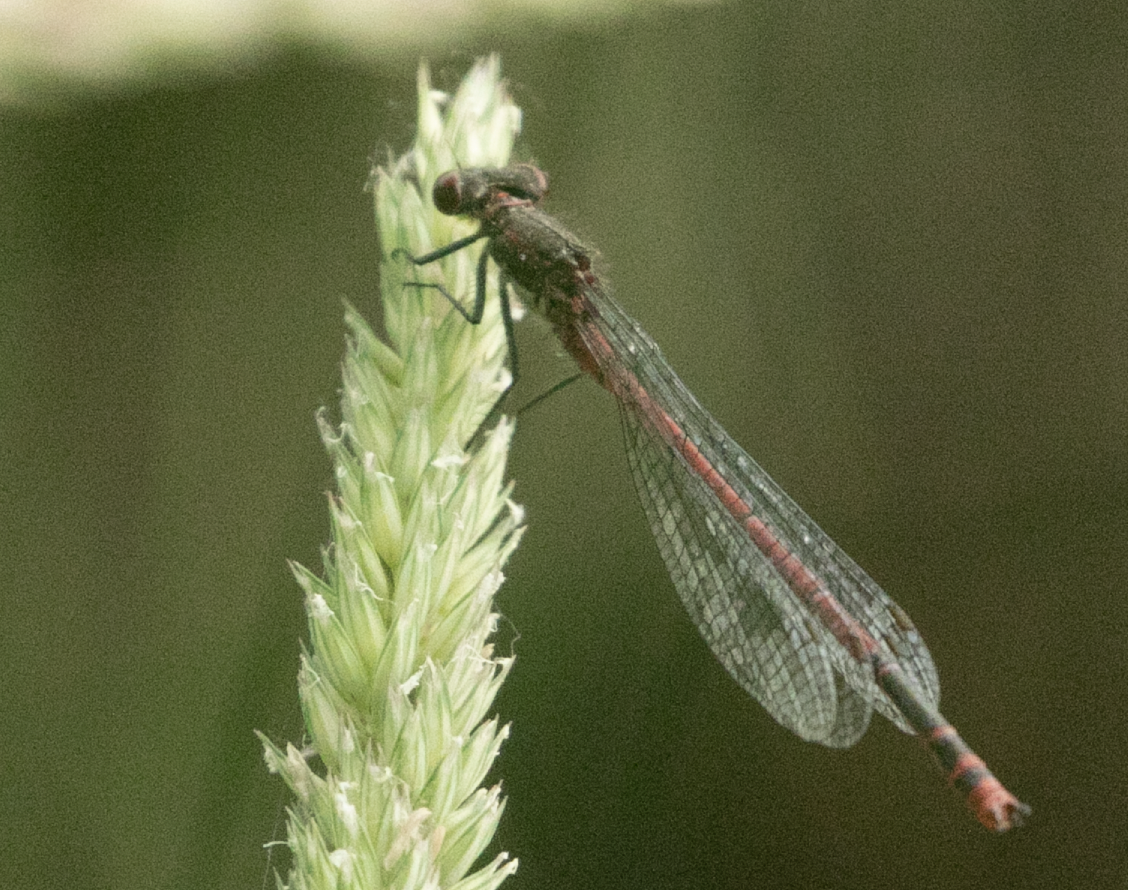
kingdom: Animalia
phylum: Arthropoda
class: Insecta
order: Odonata
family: Coenagrionidae
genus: Pyrrhosoma
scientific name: Pyrrhosoma nymphula
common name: Large red damsel
